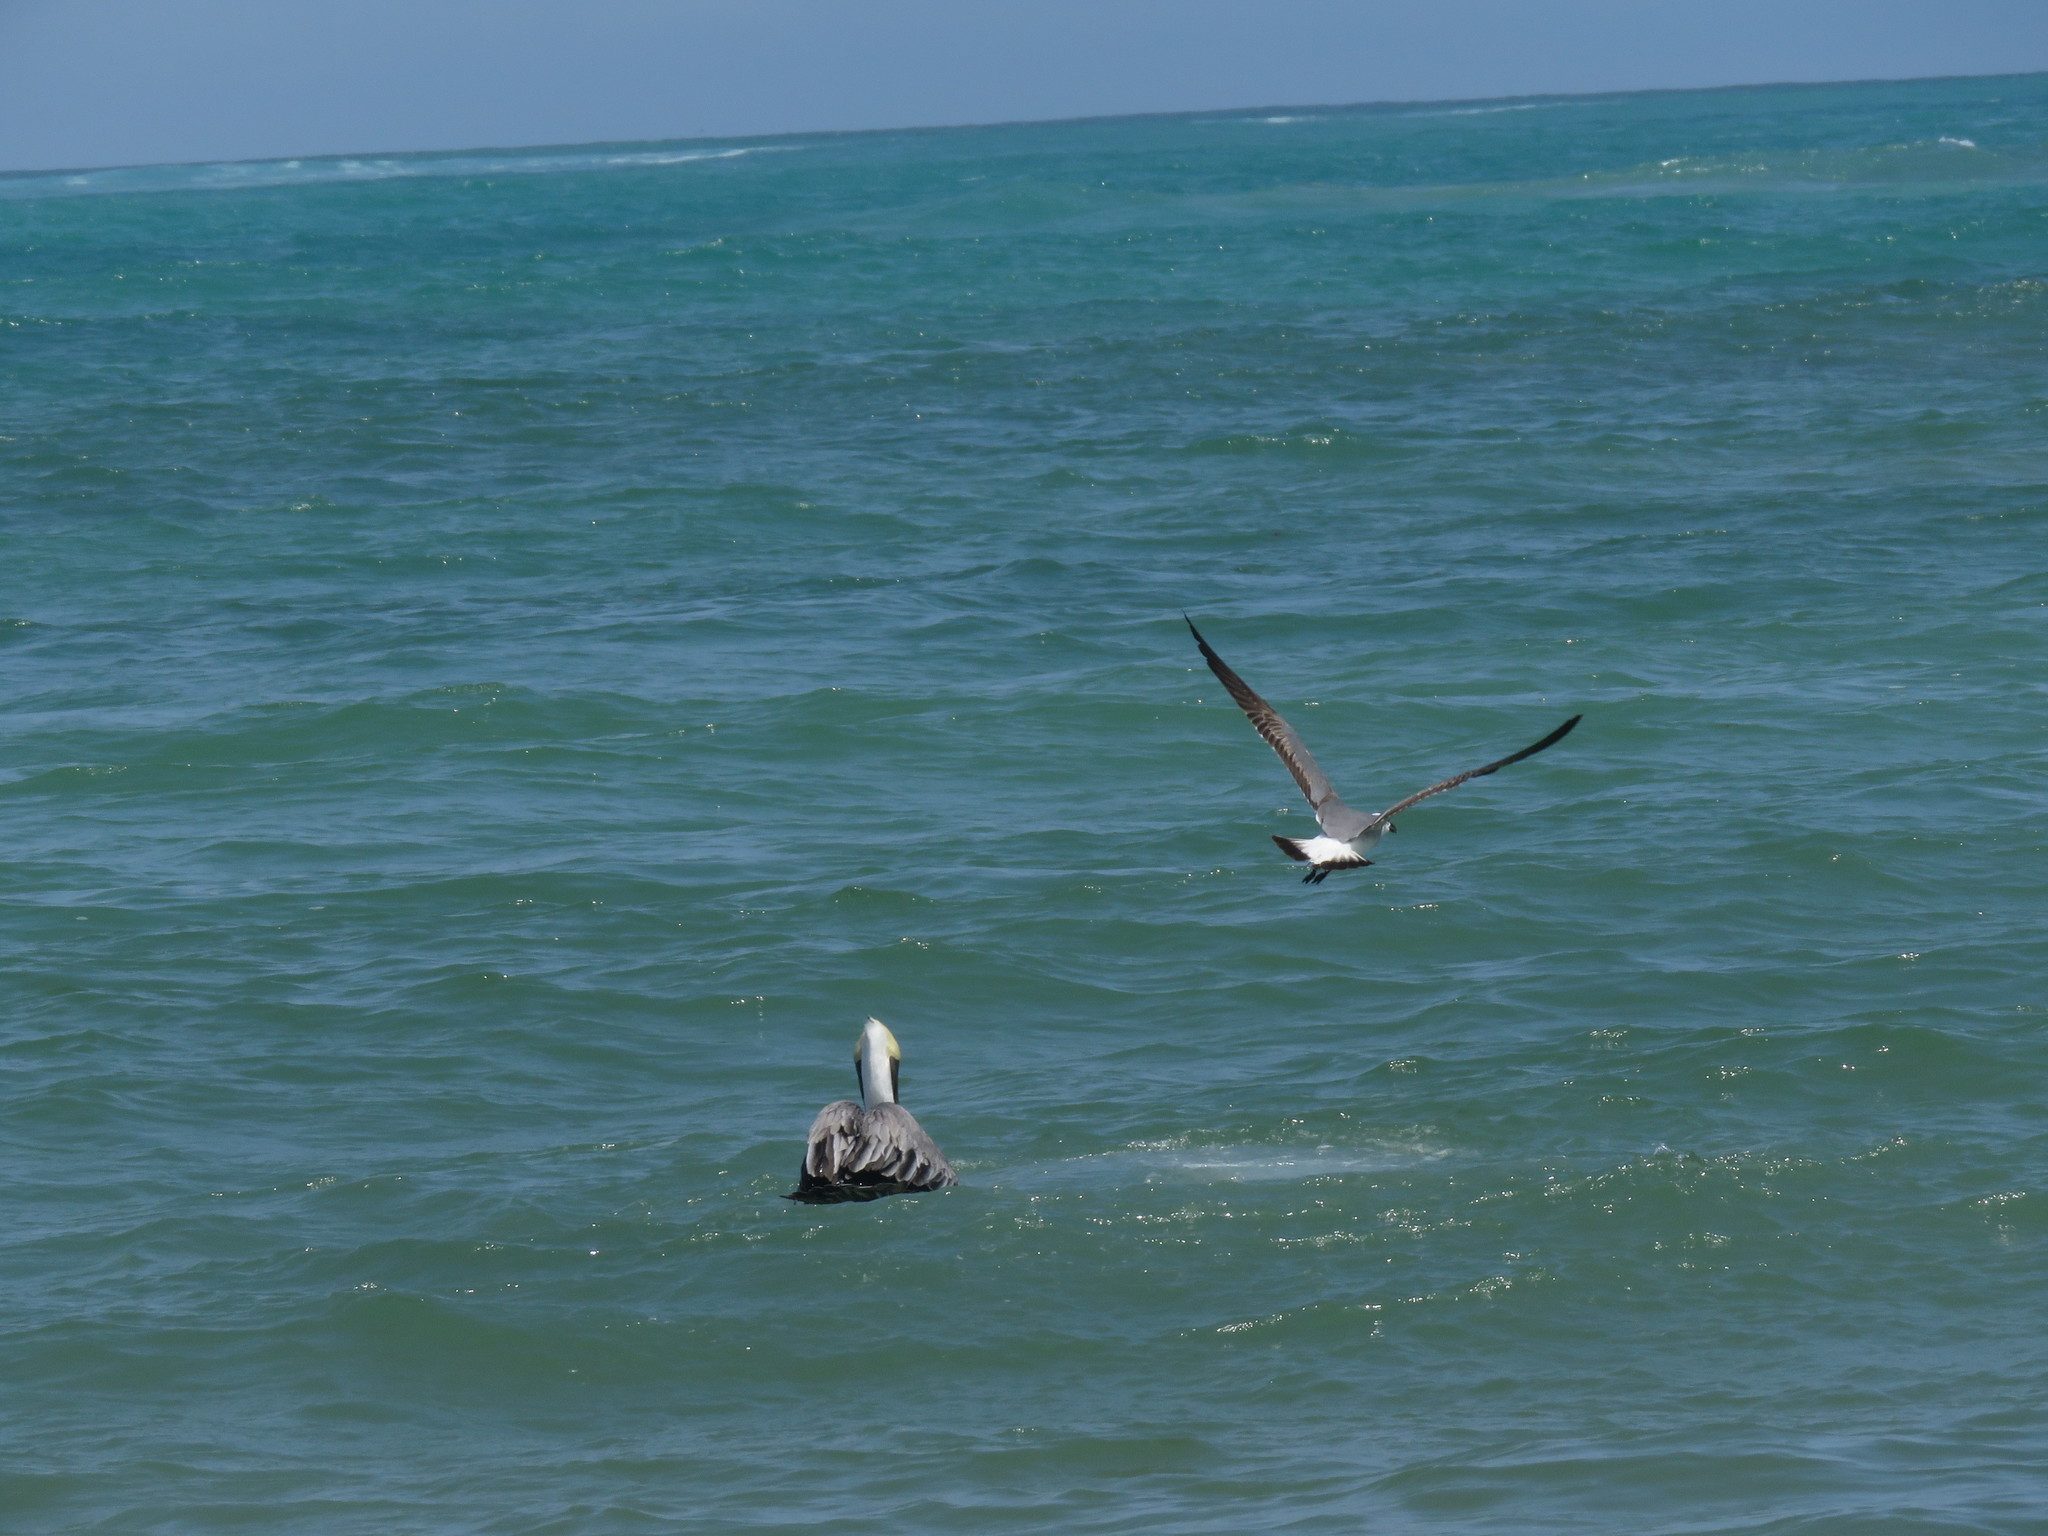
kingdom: Animalia
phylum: Chordata
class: Aves
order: Charadriiformes
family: Laridae
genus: Leucophaeus
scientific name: Leucophaeus atricilla
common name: Laughing gull
